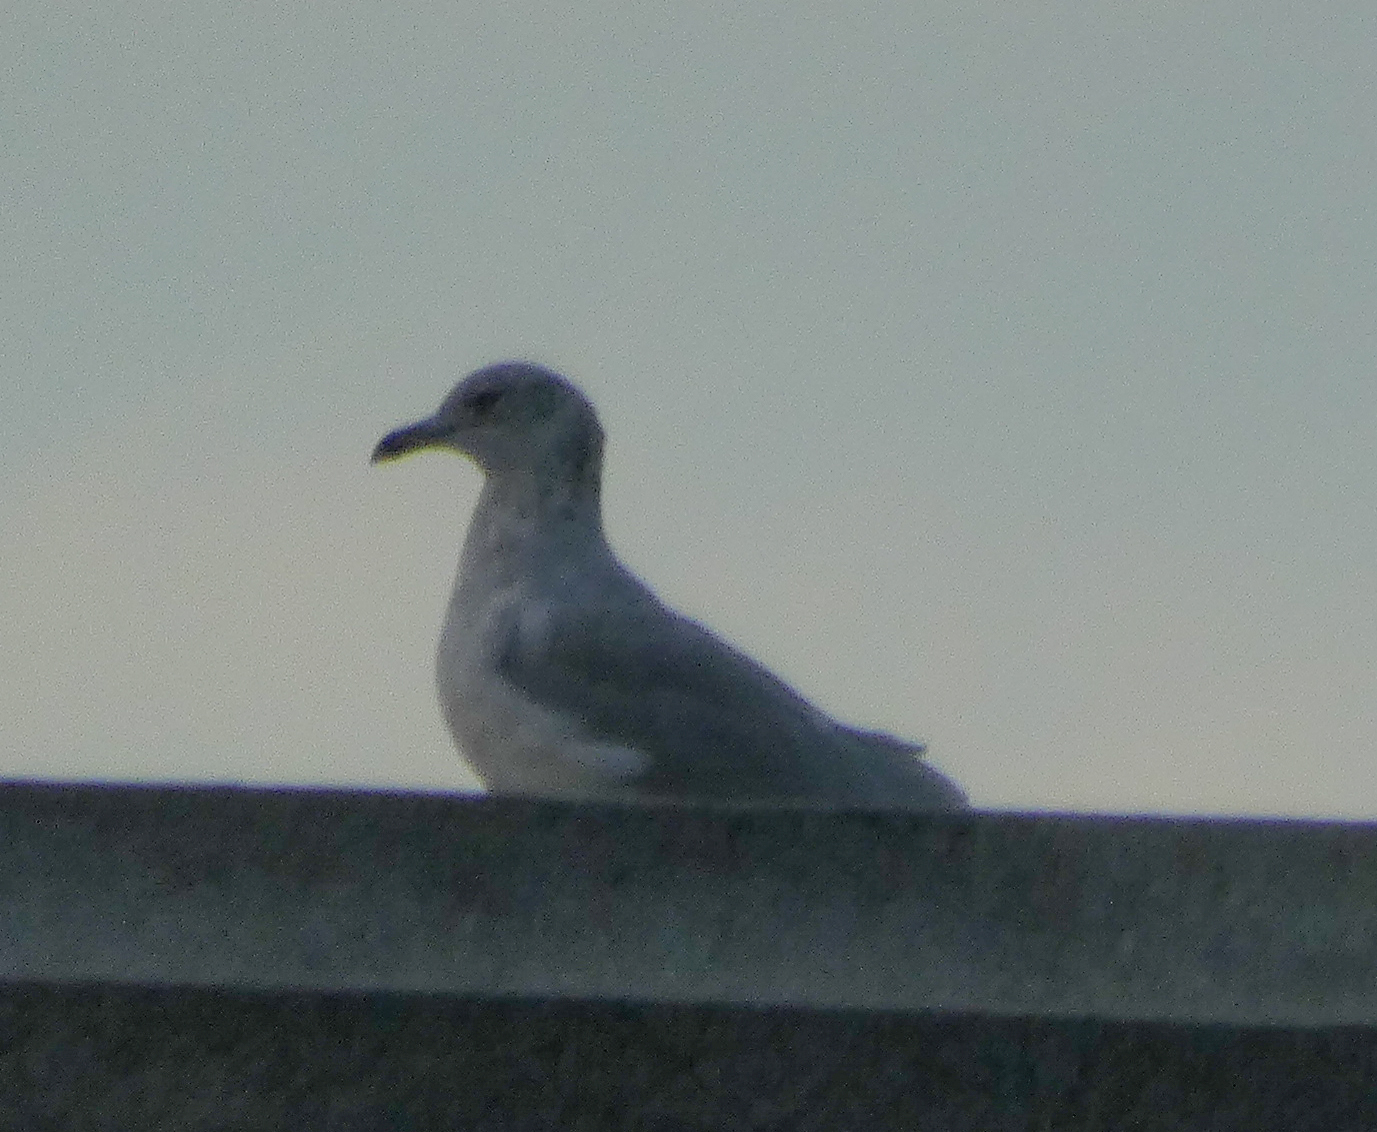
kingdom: Animalia
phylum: Chordata
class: Aves
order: Charadriiformes
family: Laridae
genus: Larus
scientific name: Larus delawarensis
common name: Ring-billed gull
